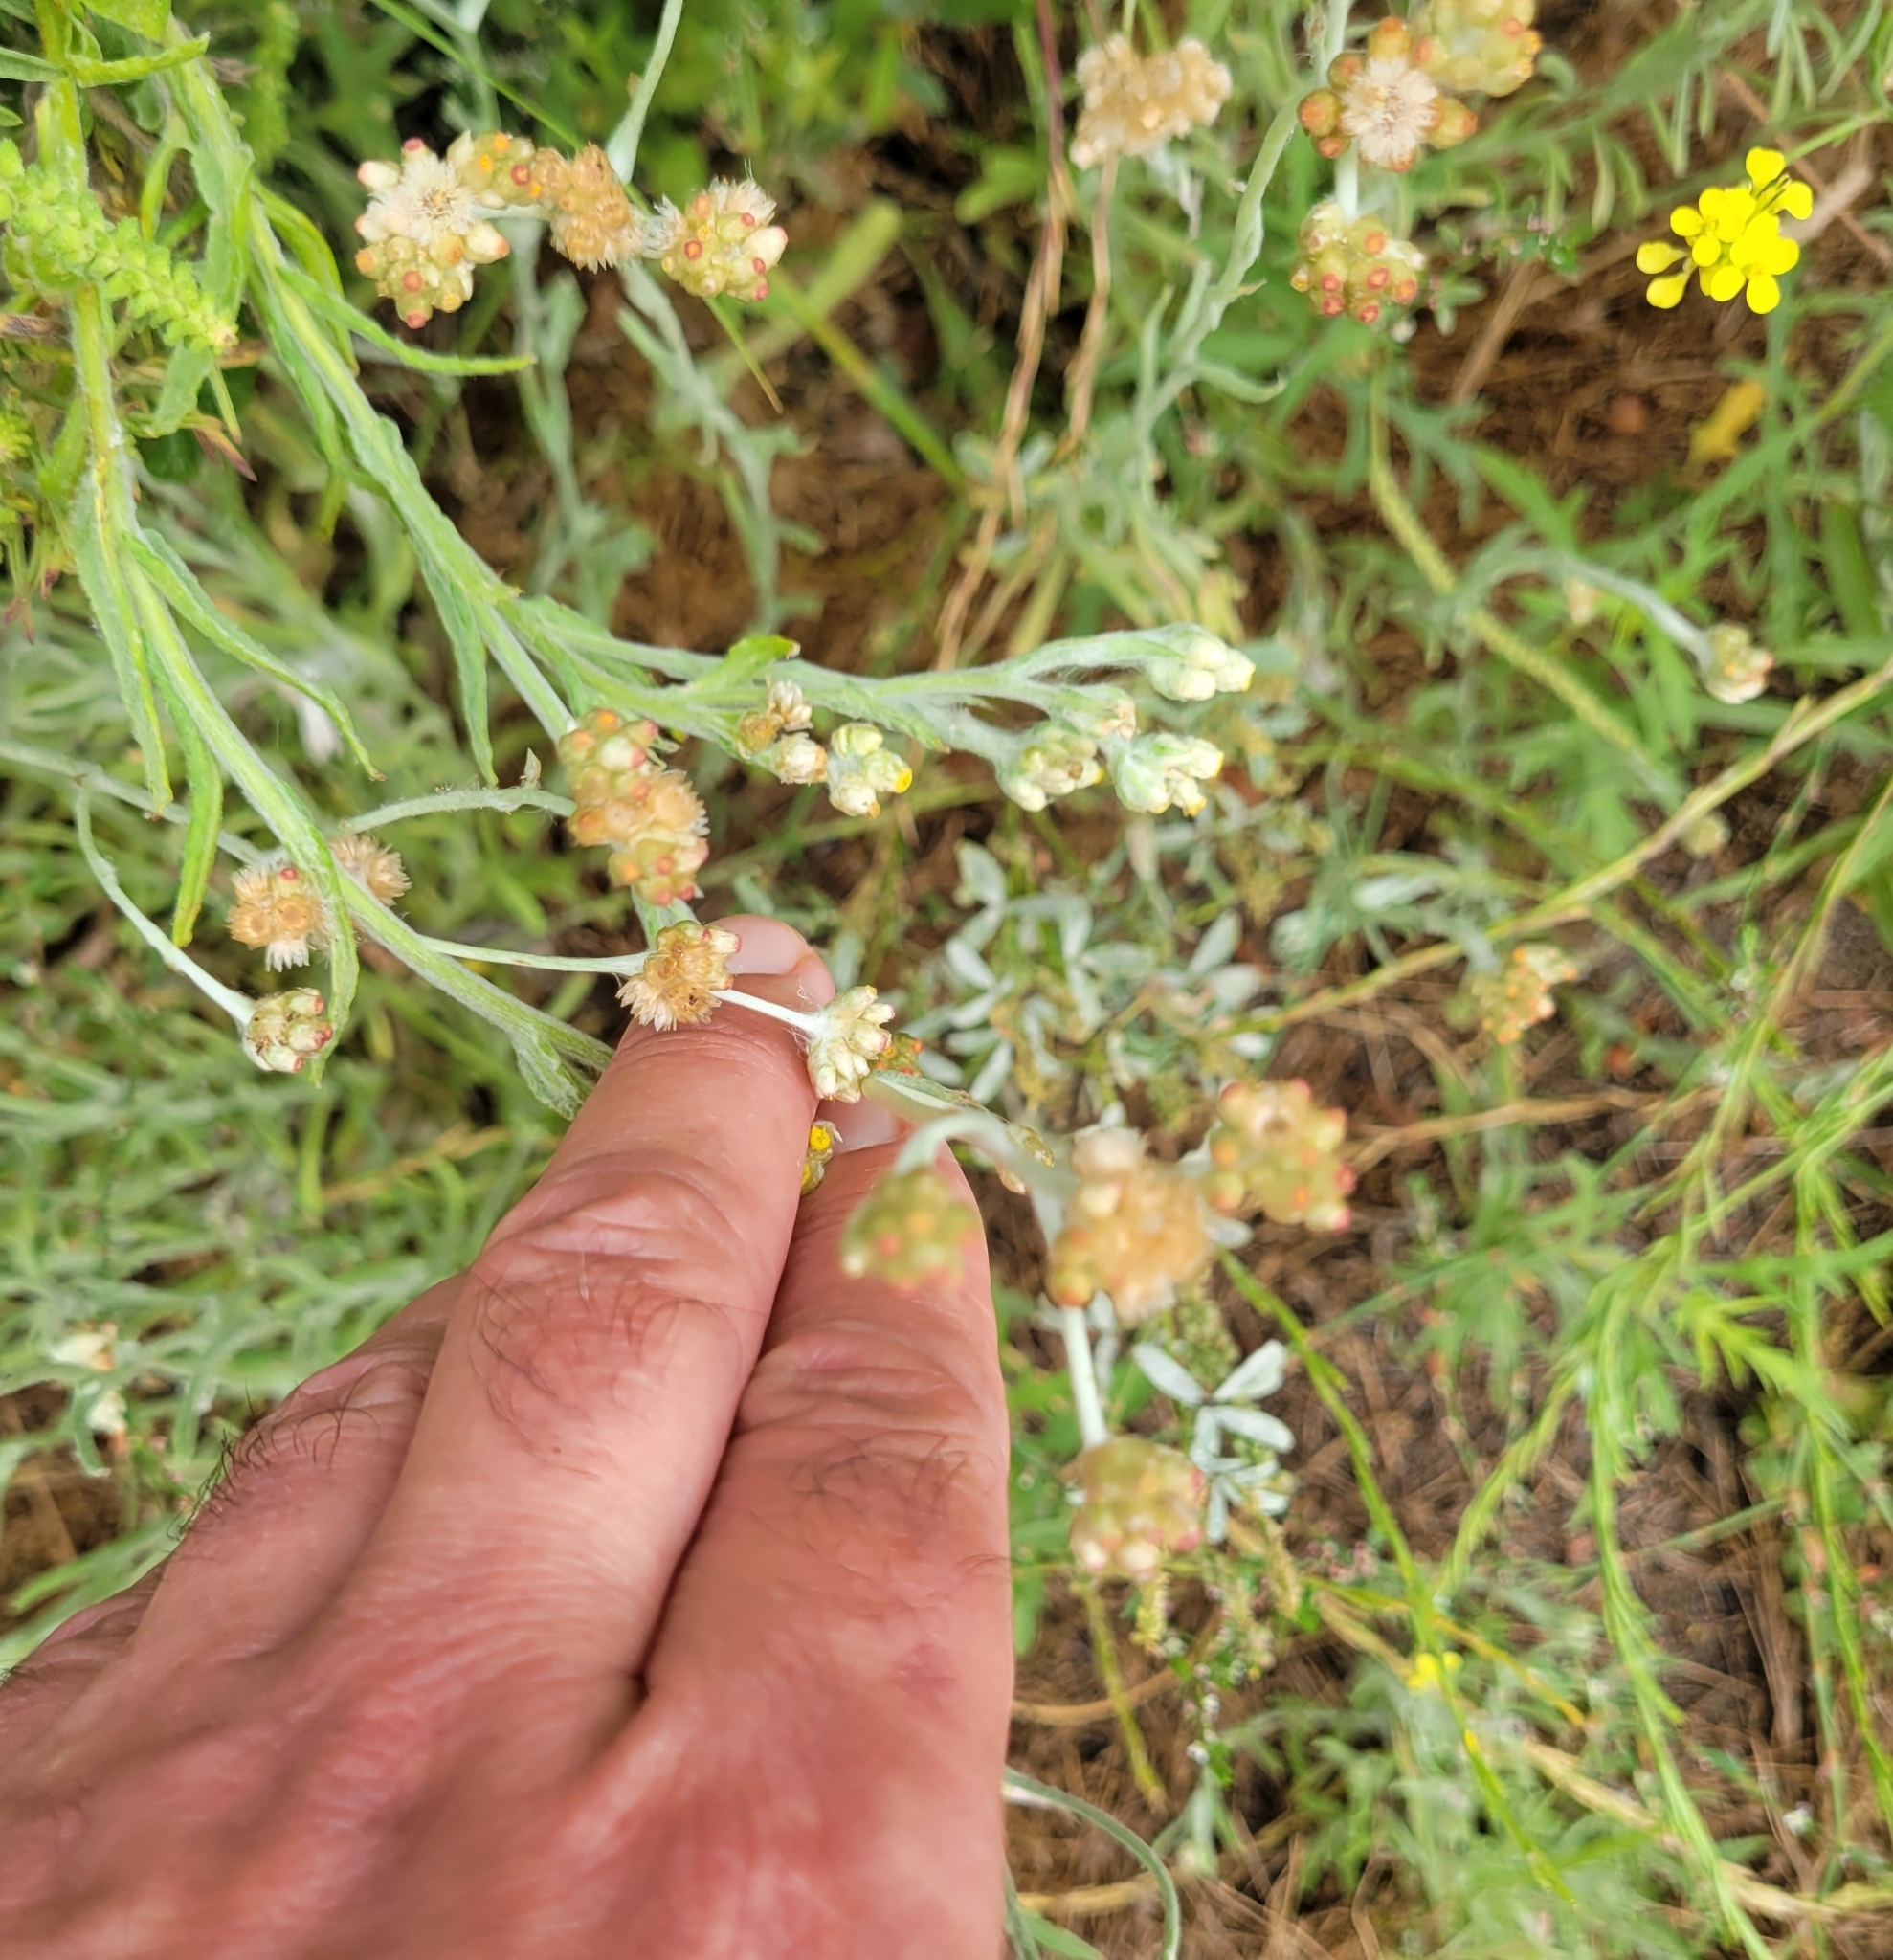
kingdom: Plantae
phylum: Tracheophyta
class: Magnoliopsida
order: Asterales
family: Asteraceae
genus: Helichrysum
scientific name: Helichrysum luteoalbum
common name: Daisy
